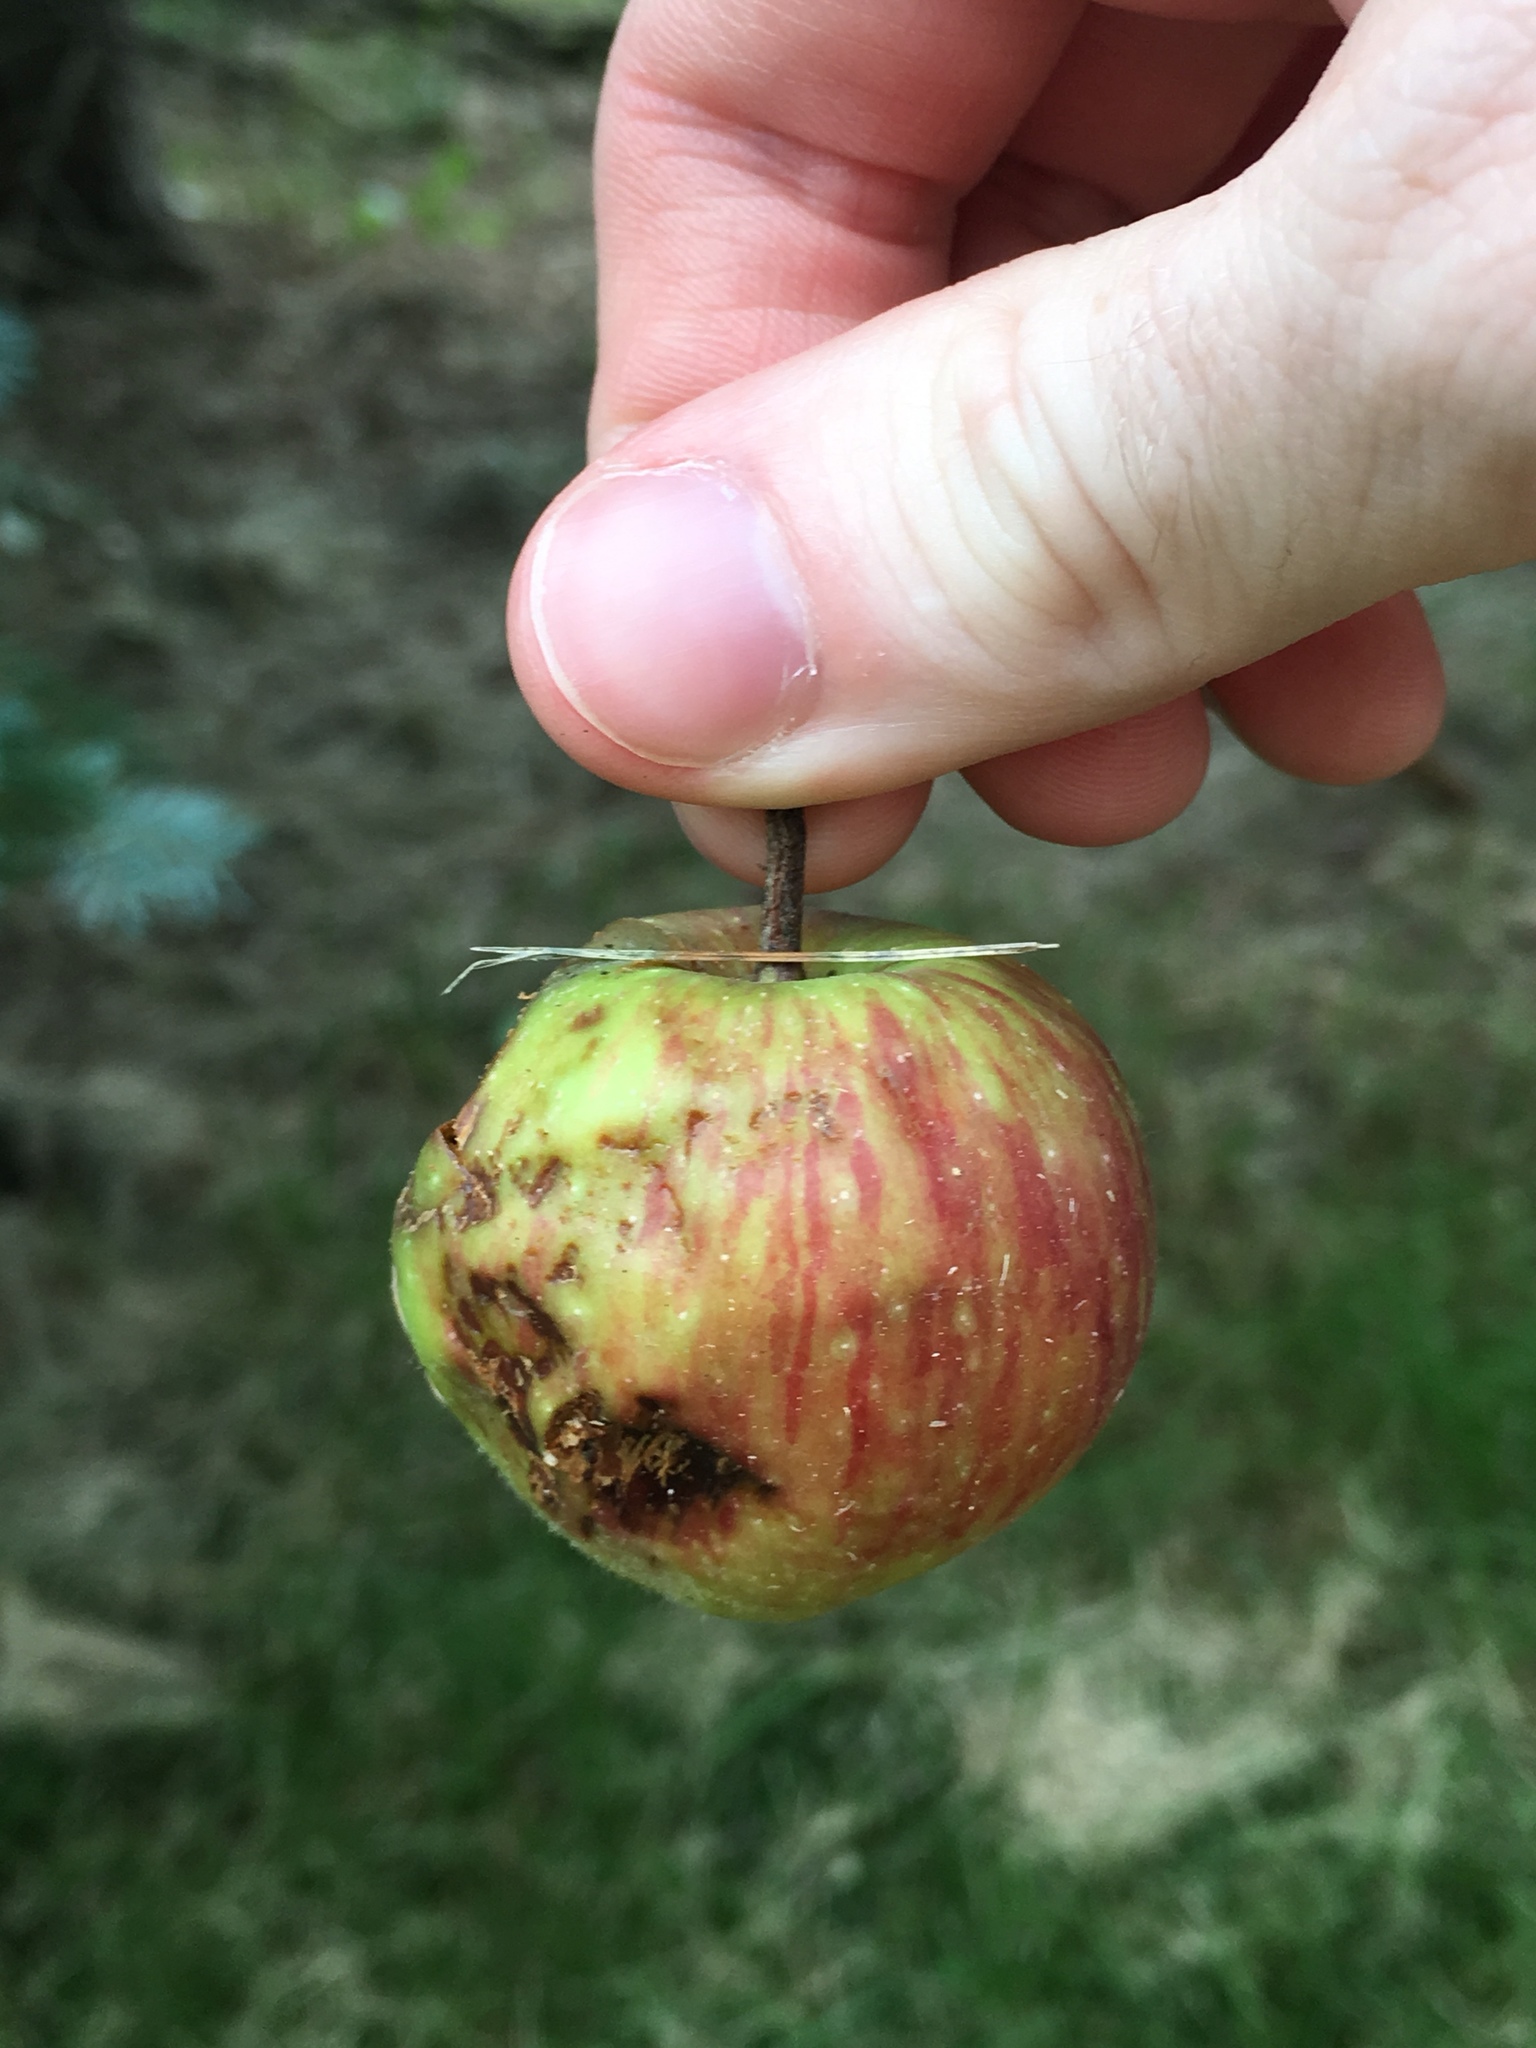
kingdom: Plantae
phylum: Tracheophyta
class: Magnoliopsida
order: Rosales
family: Rosaceae
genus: Malus
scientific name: Malus domestica
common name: Apple
